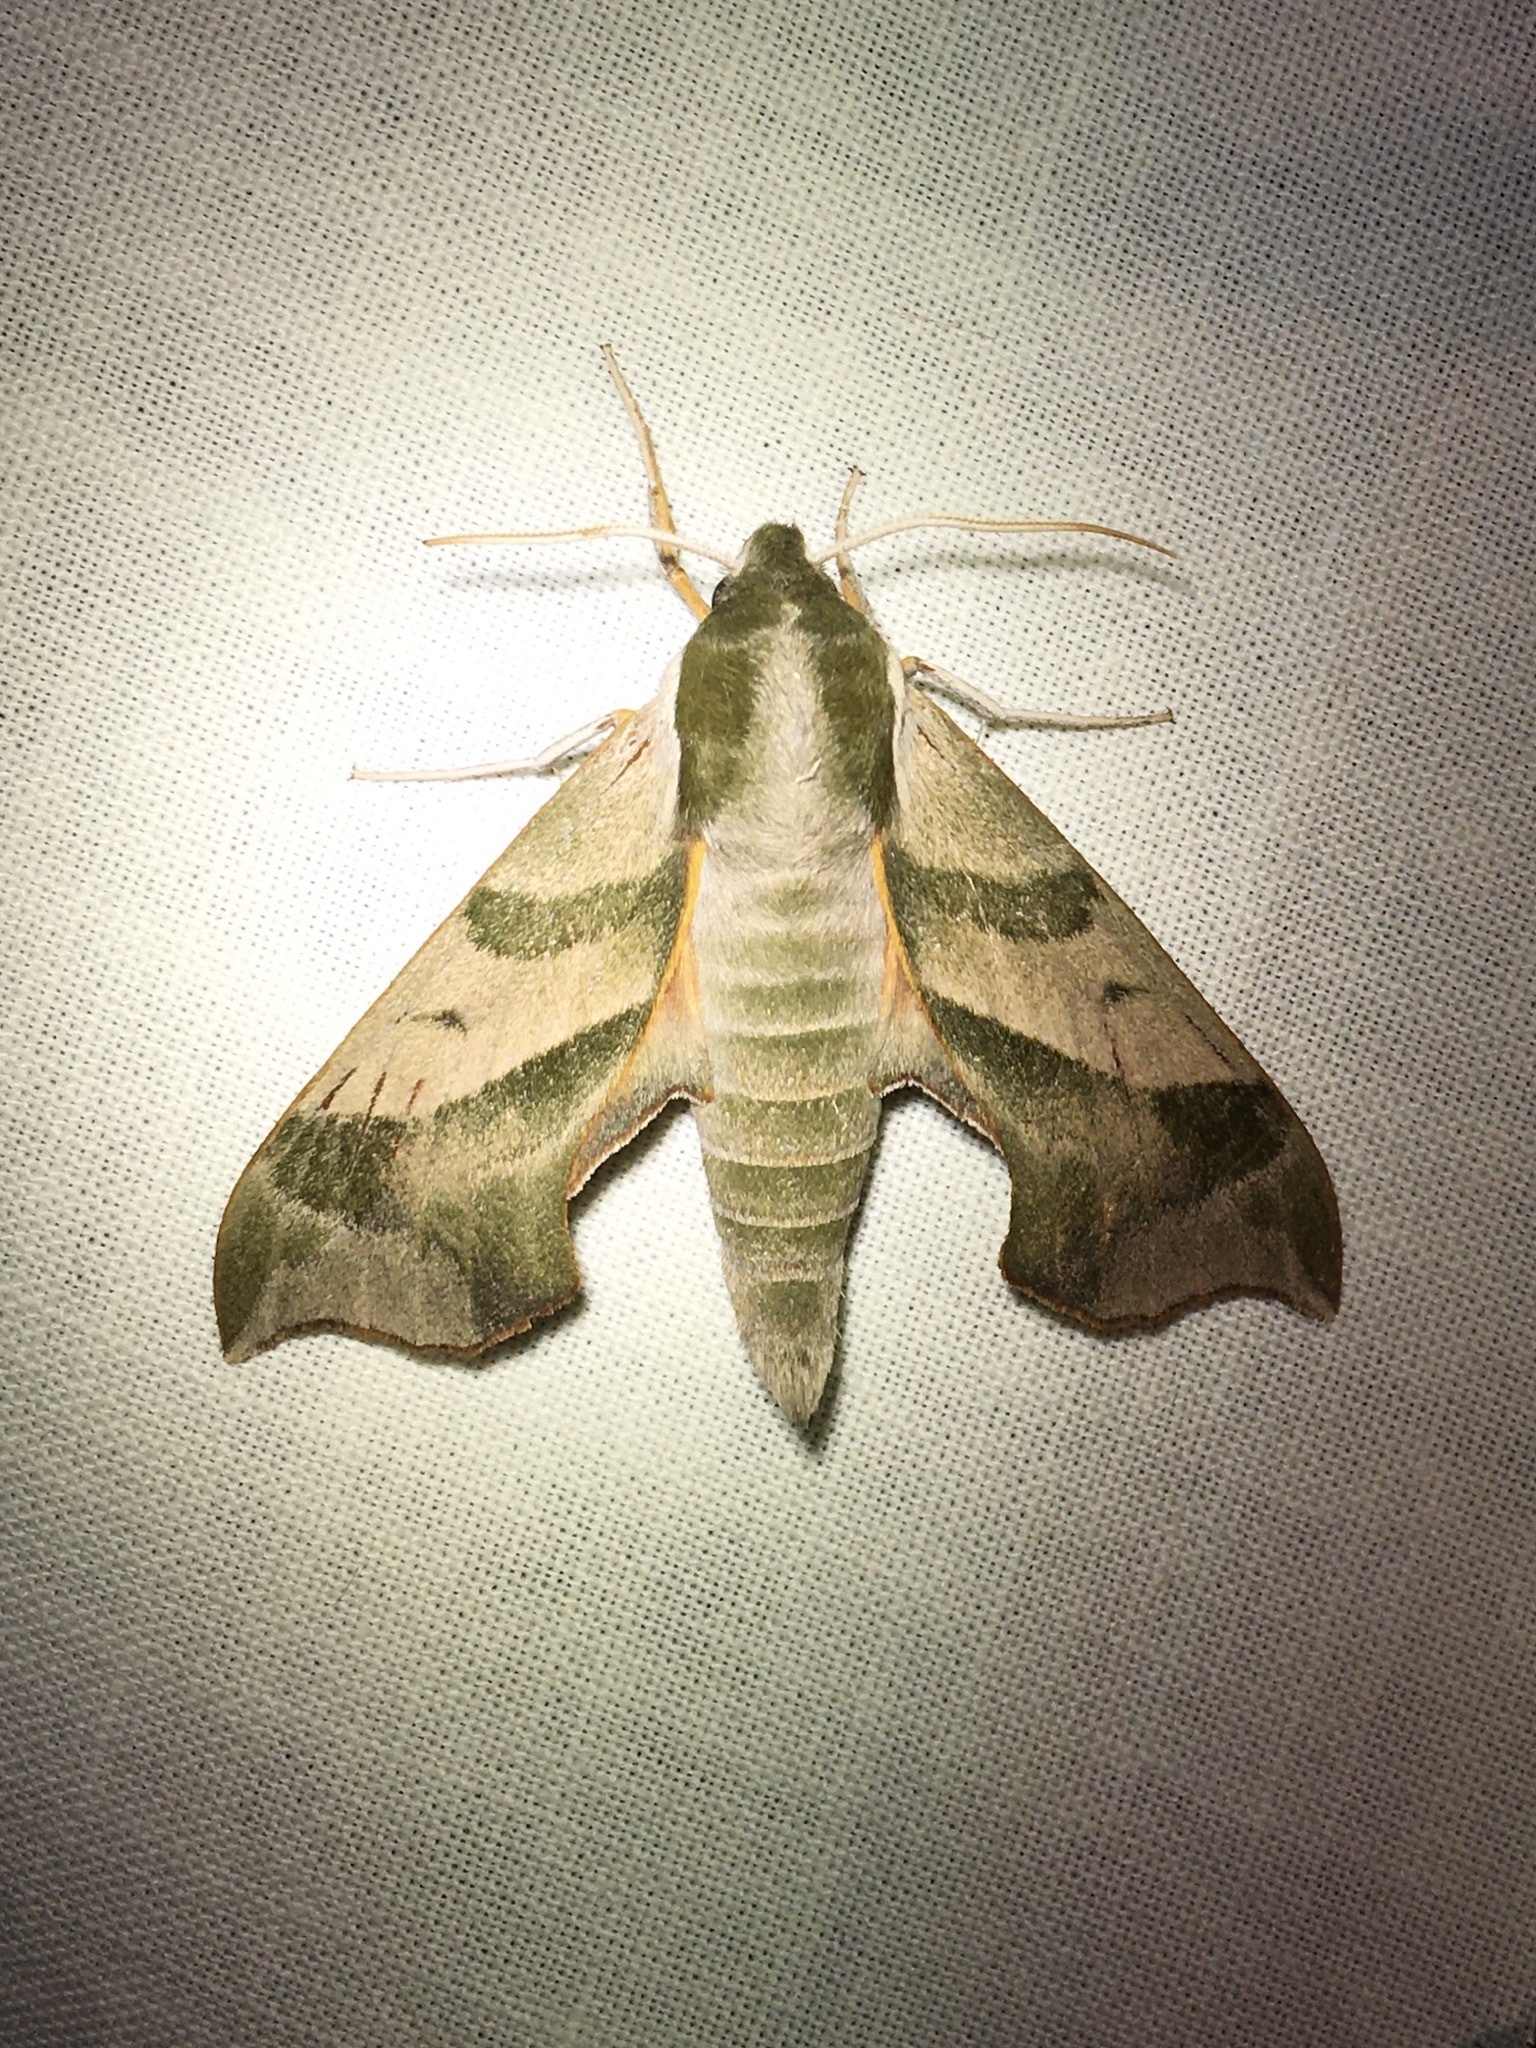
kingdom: Animalia
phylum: Arthropoda
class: Insecta
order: Lepidoptera
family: Sphingidae
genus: Darapsa
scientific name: Darapsa myron
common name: Hog sphinx
